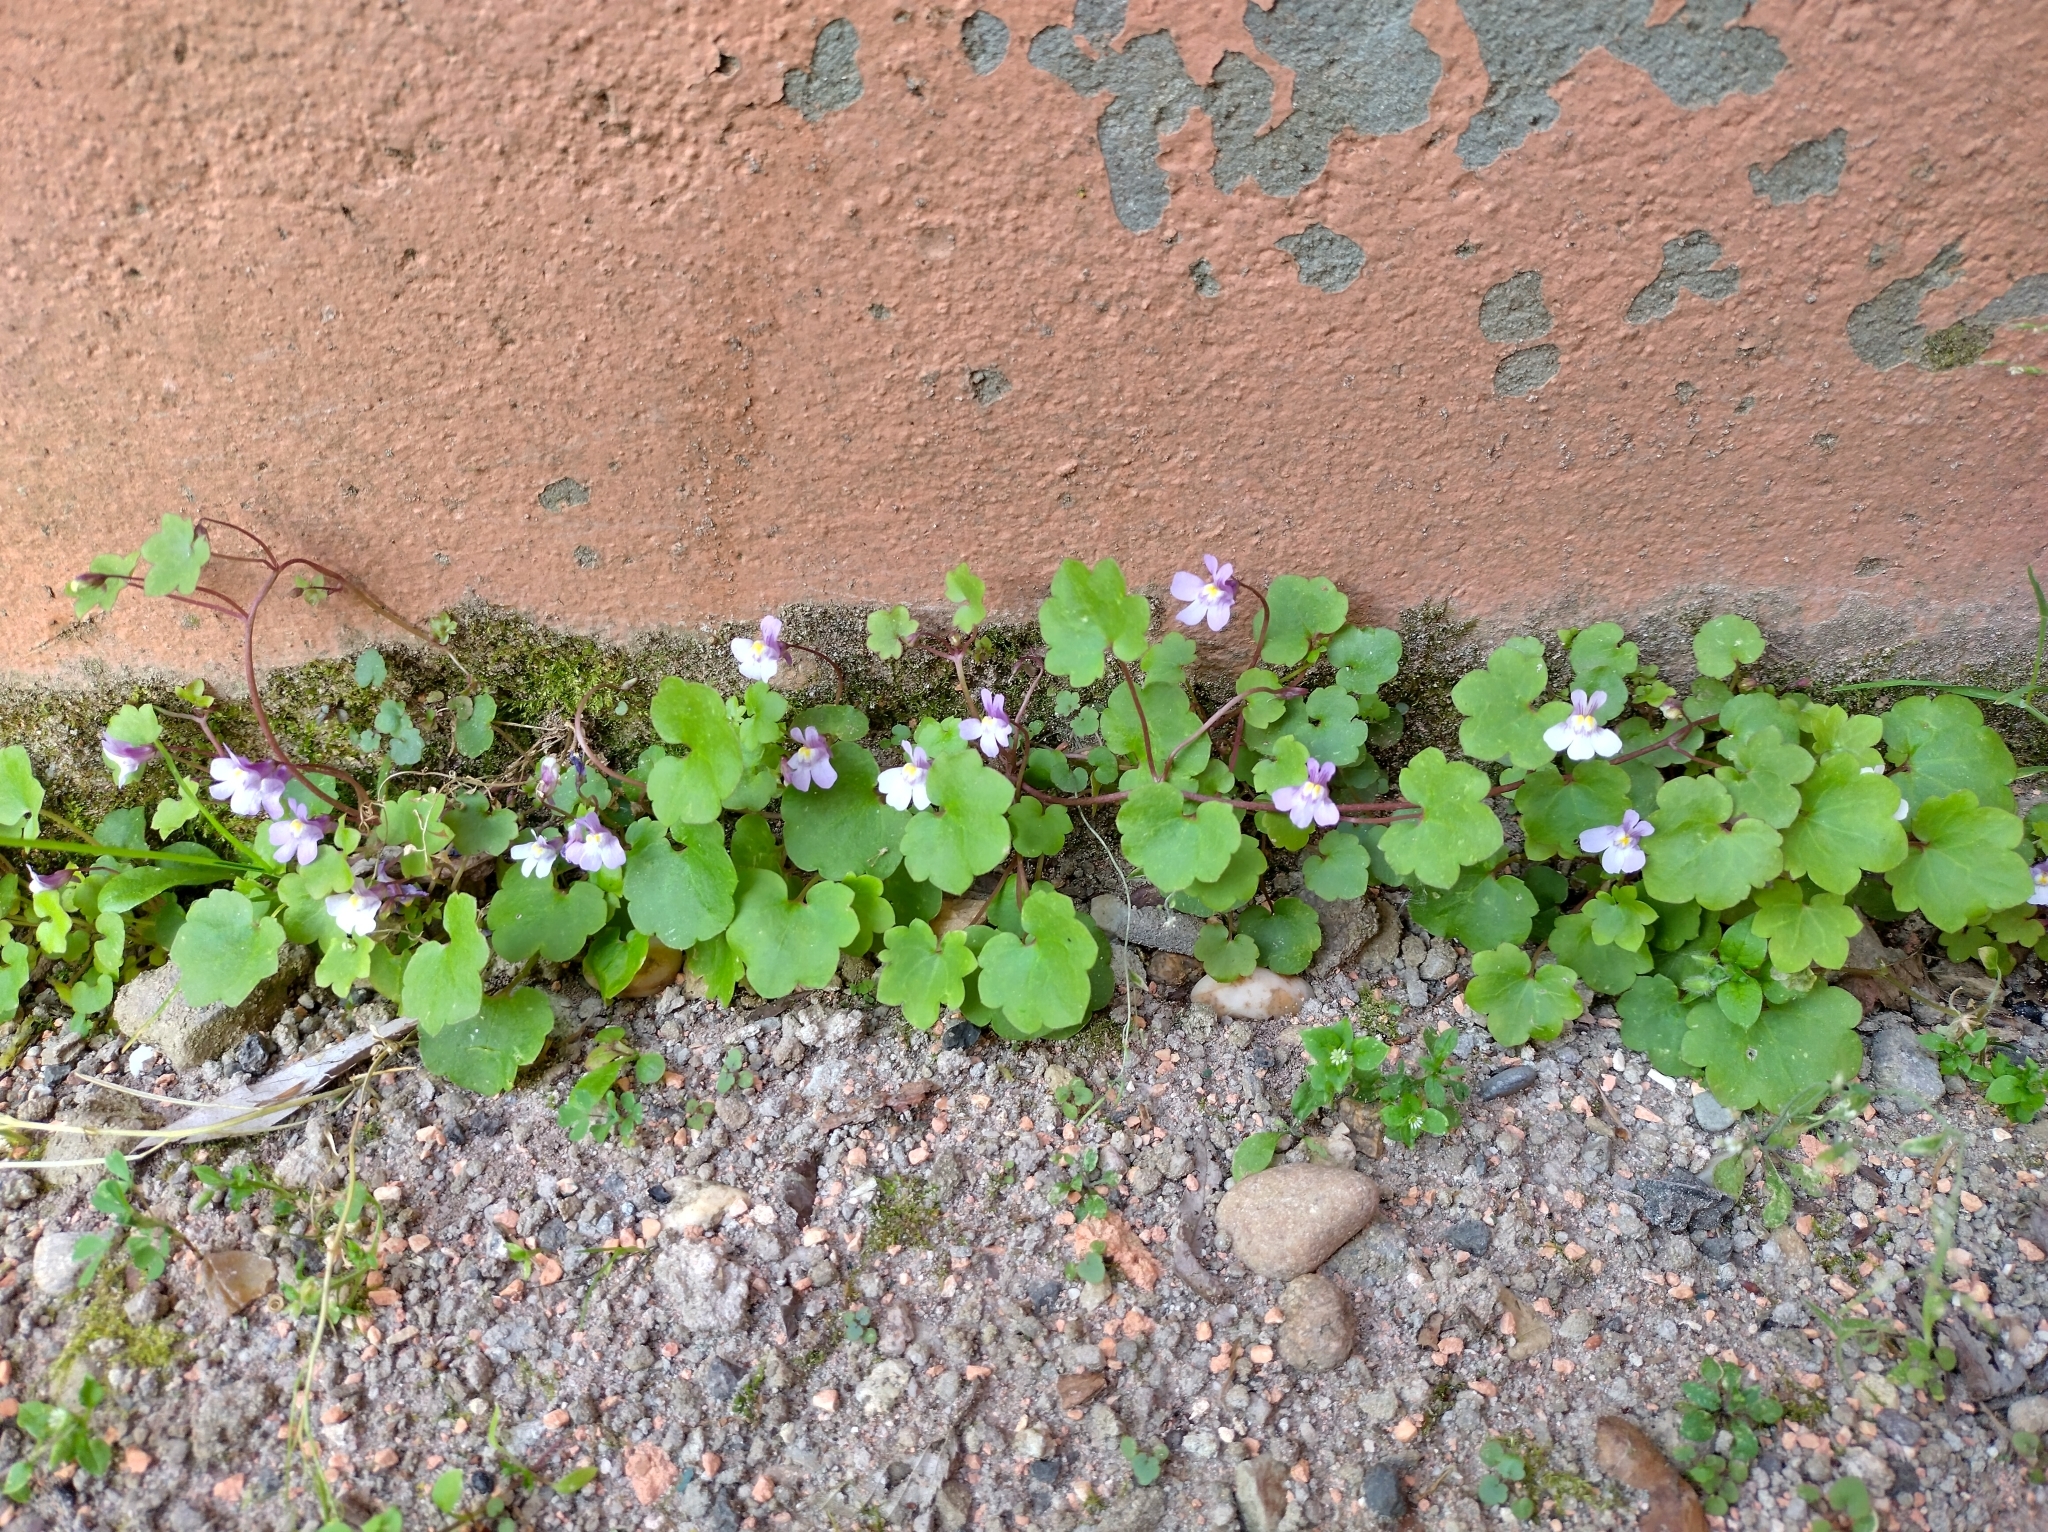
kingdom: Plantae
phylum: Tracheophyta
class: Magnoliopsida
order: Lamiales
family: Plantaginaceae
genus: Cymbalaria
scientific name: Cymbalaria muralis
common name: Ivy-leaved toadflax
